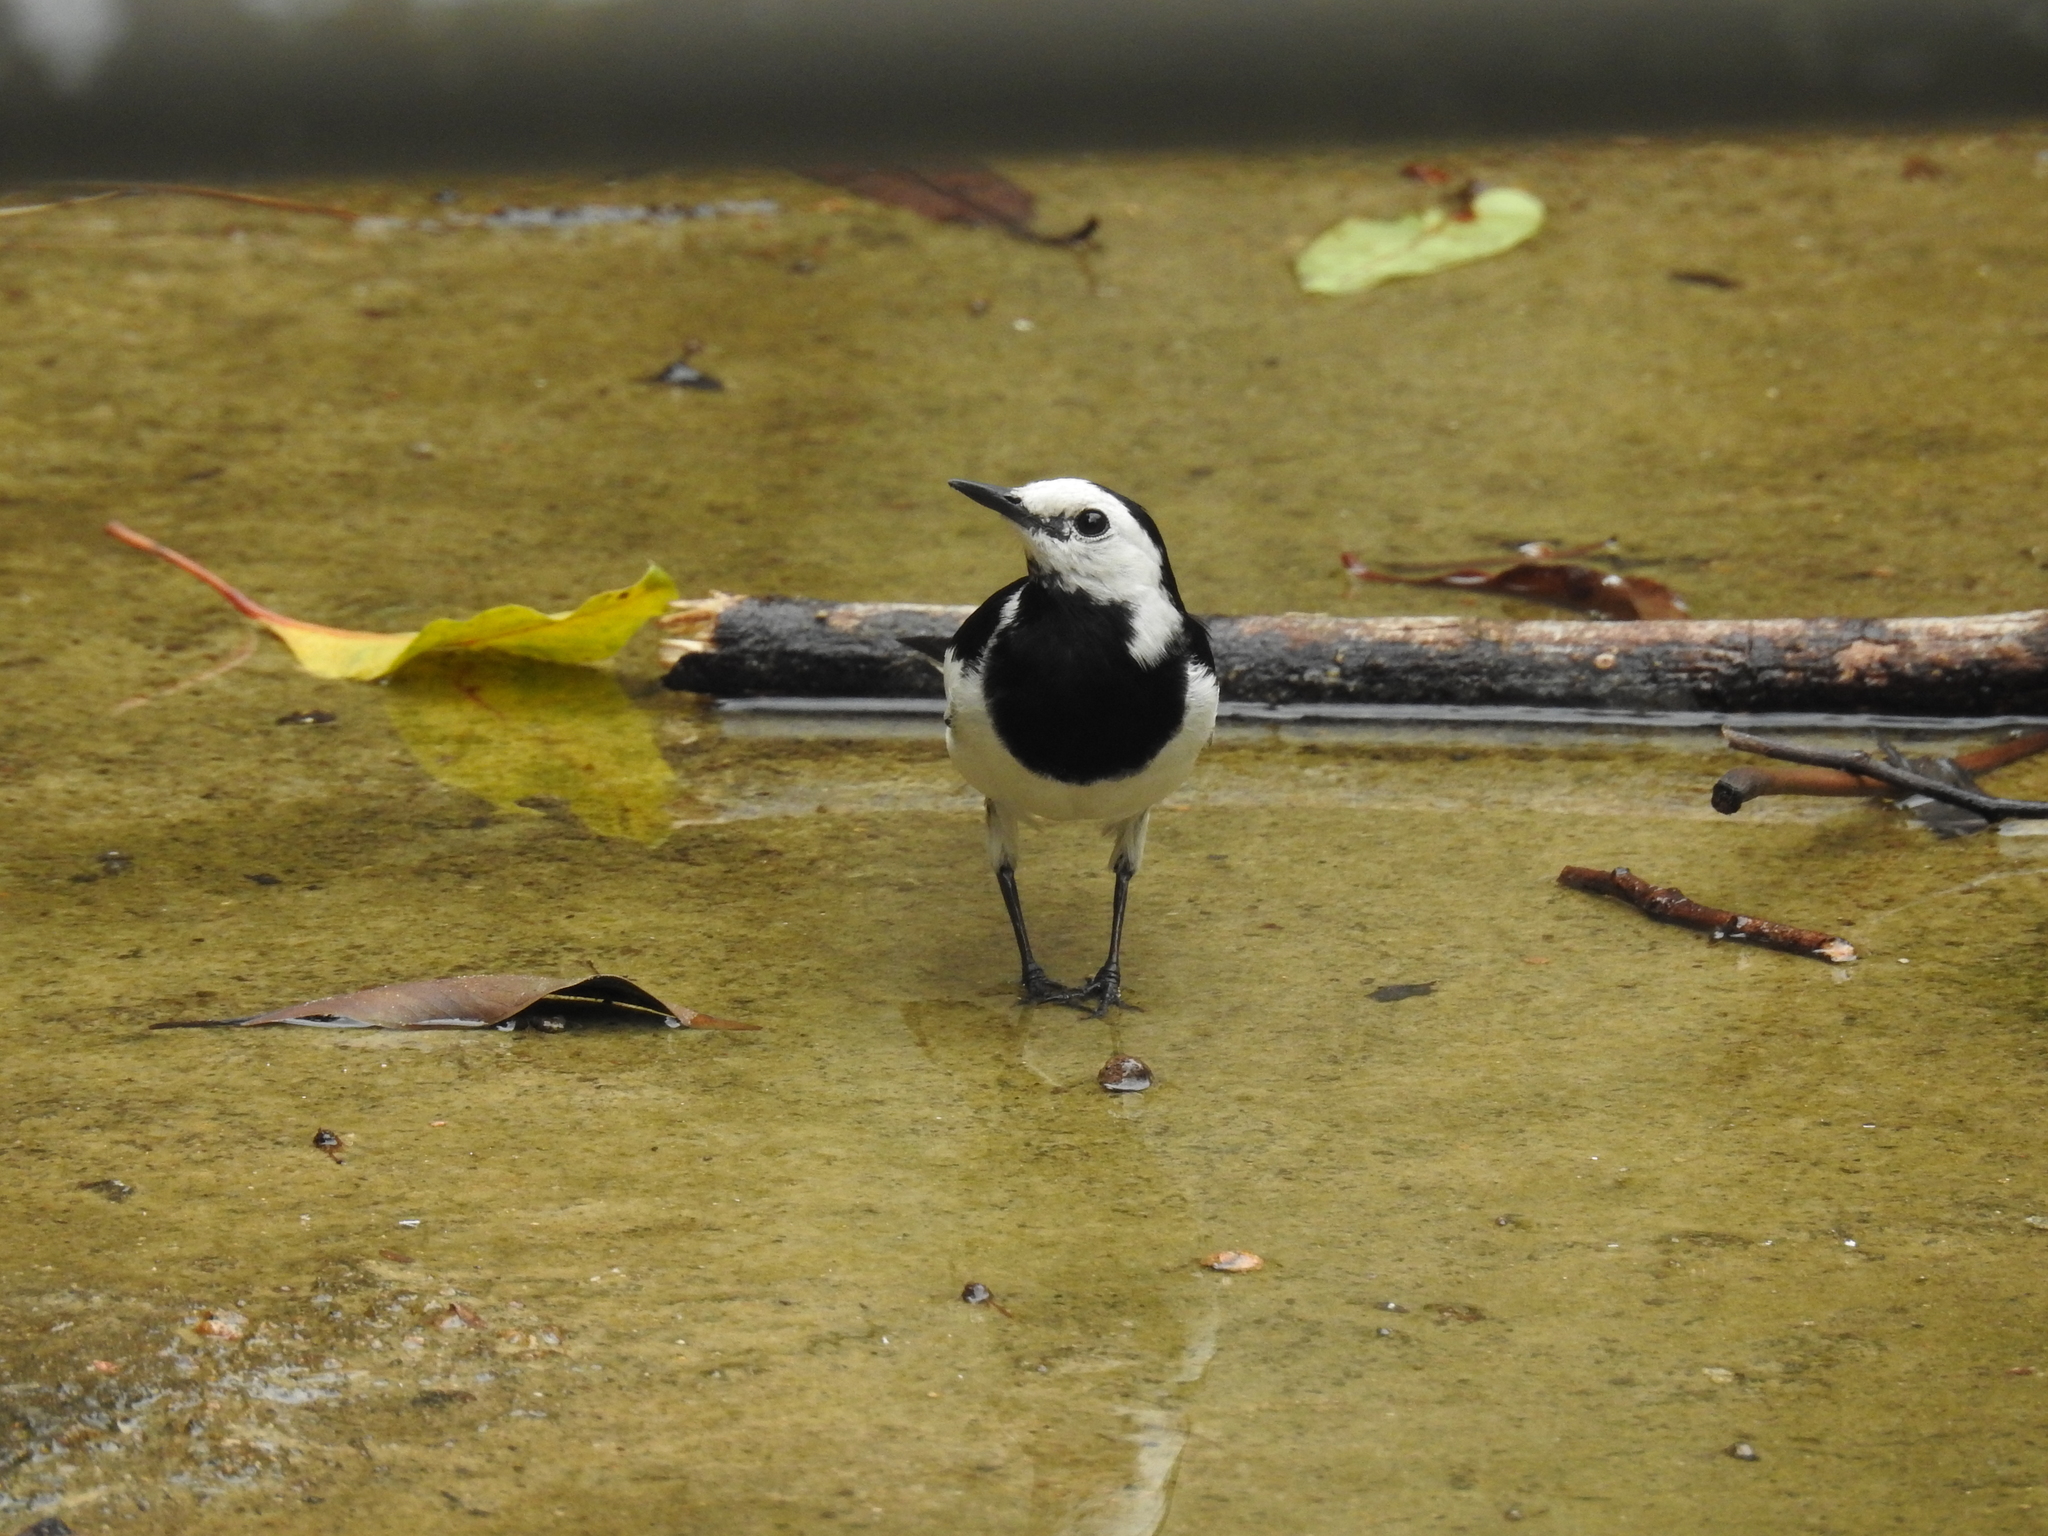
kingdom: Animalia
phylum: Chordata
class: Aves
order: Passeriformes
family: Motacillidae
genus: Motacilla
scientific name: Motacilla alba
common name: White wagtail
